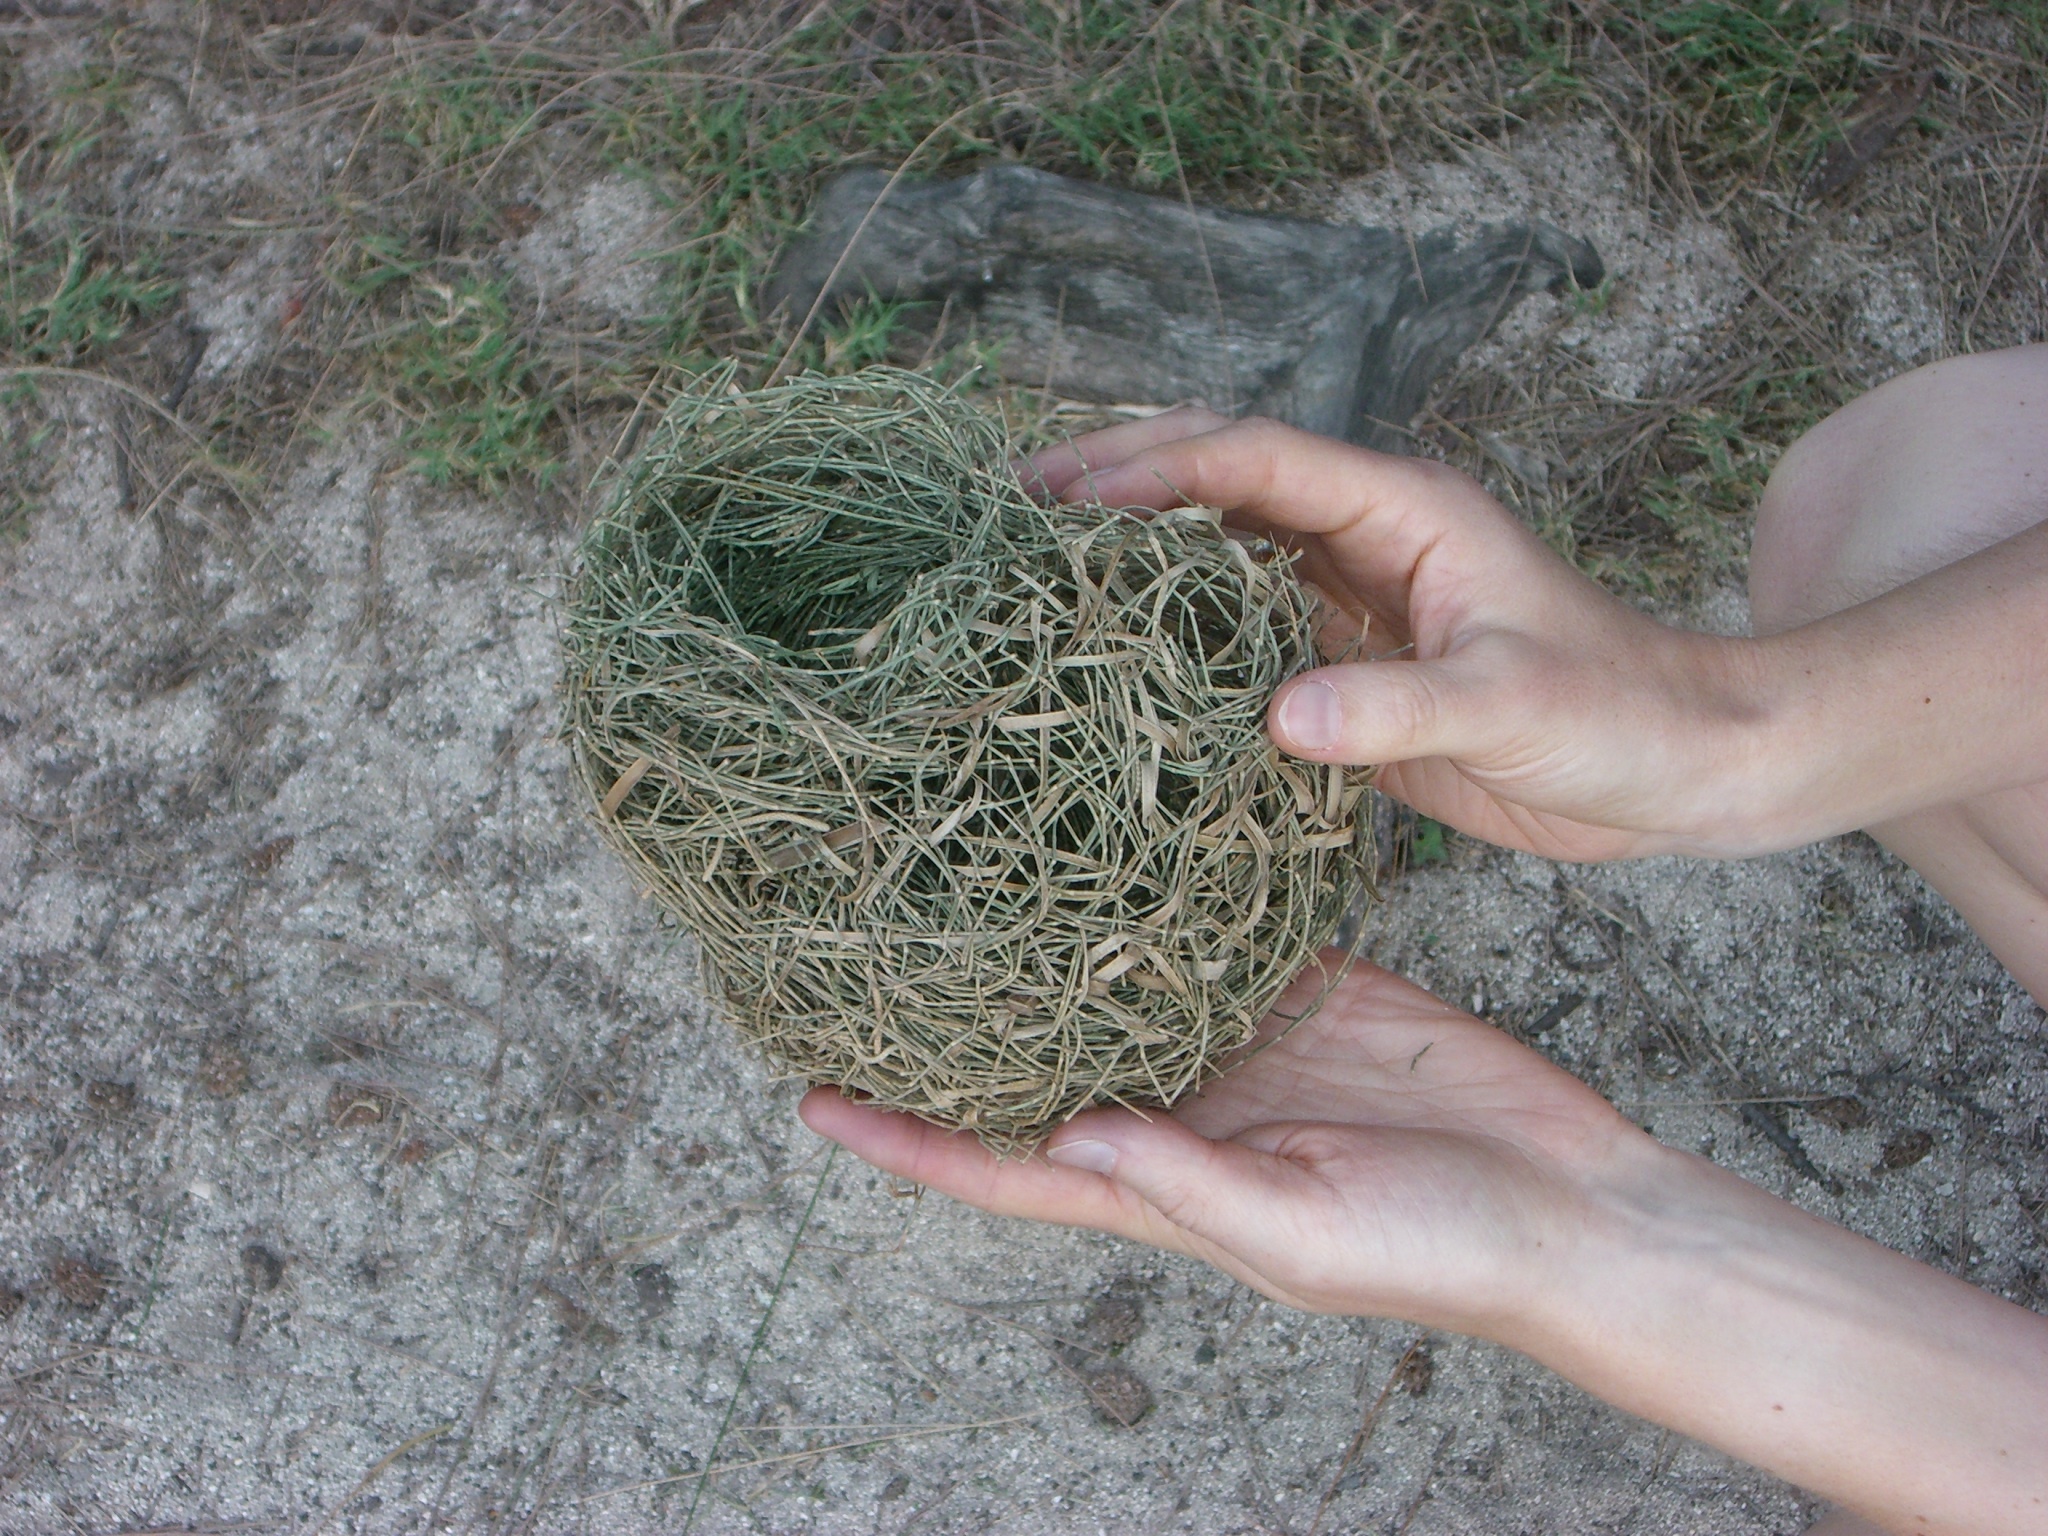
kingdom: Animalia
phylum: Chordata
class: Aves
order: Passeriformes
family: Ploceidae
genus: Ploceus
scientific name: Ploceus cucullatus
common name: Village weaver
